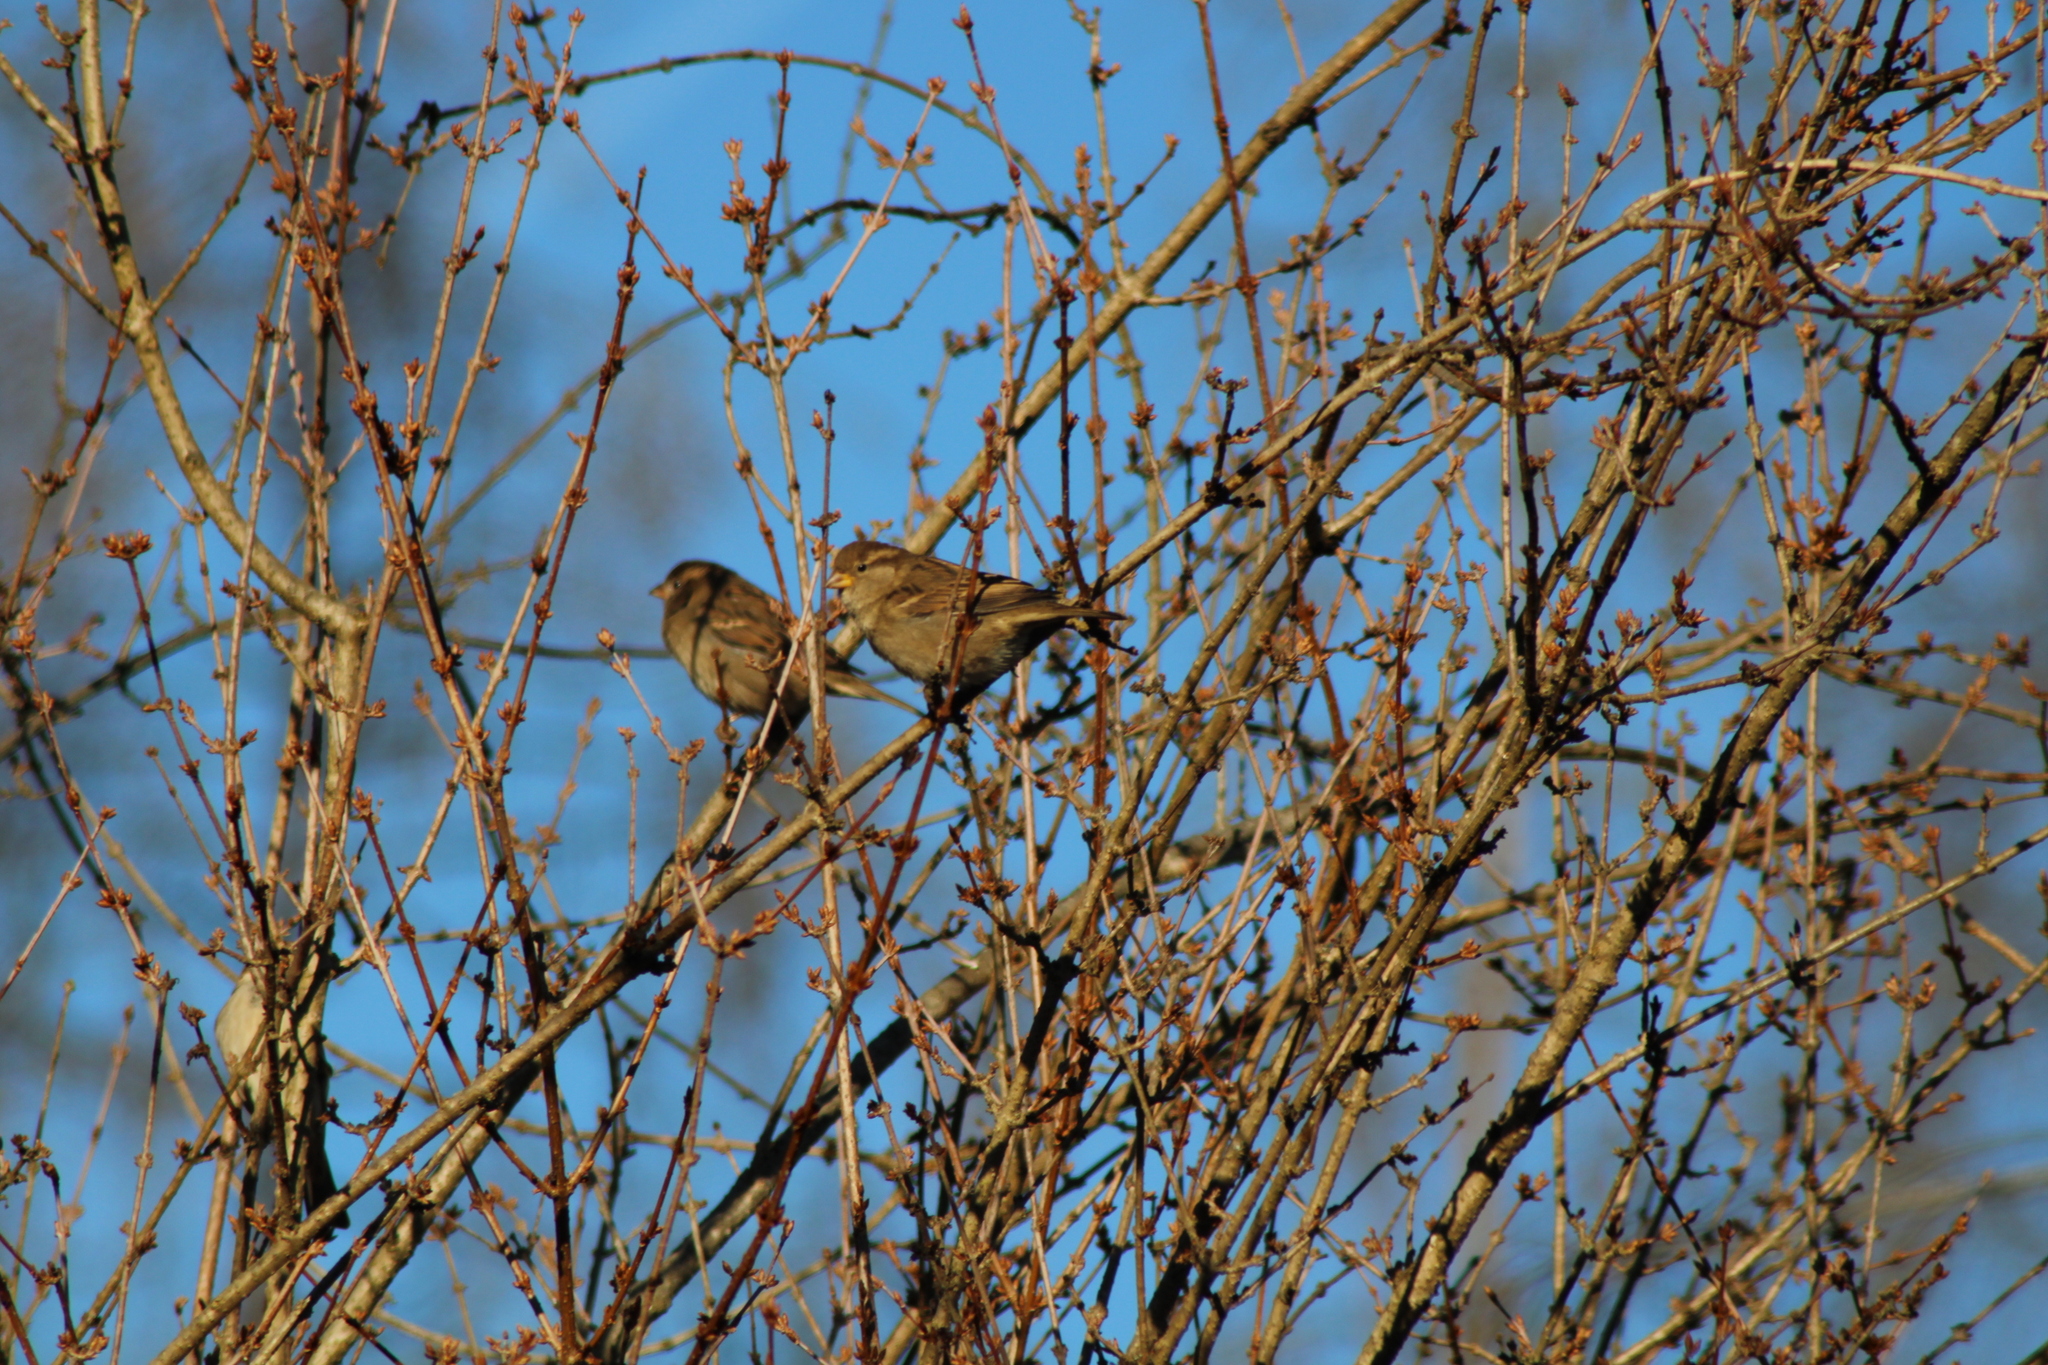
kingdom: Animalia
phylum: Chordata
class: Aves
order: Passeriformes
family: Passeridae
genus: Passer
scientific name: Passer domesticus
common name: House sparrow
